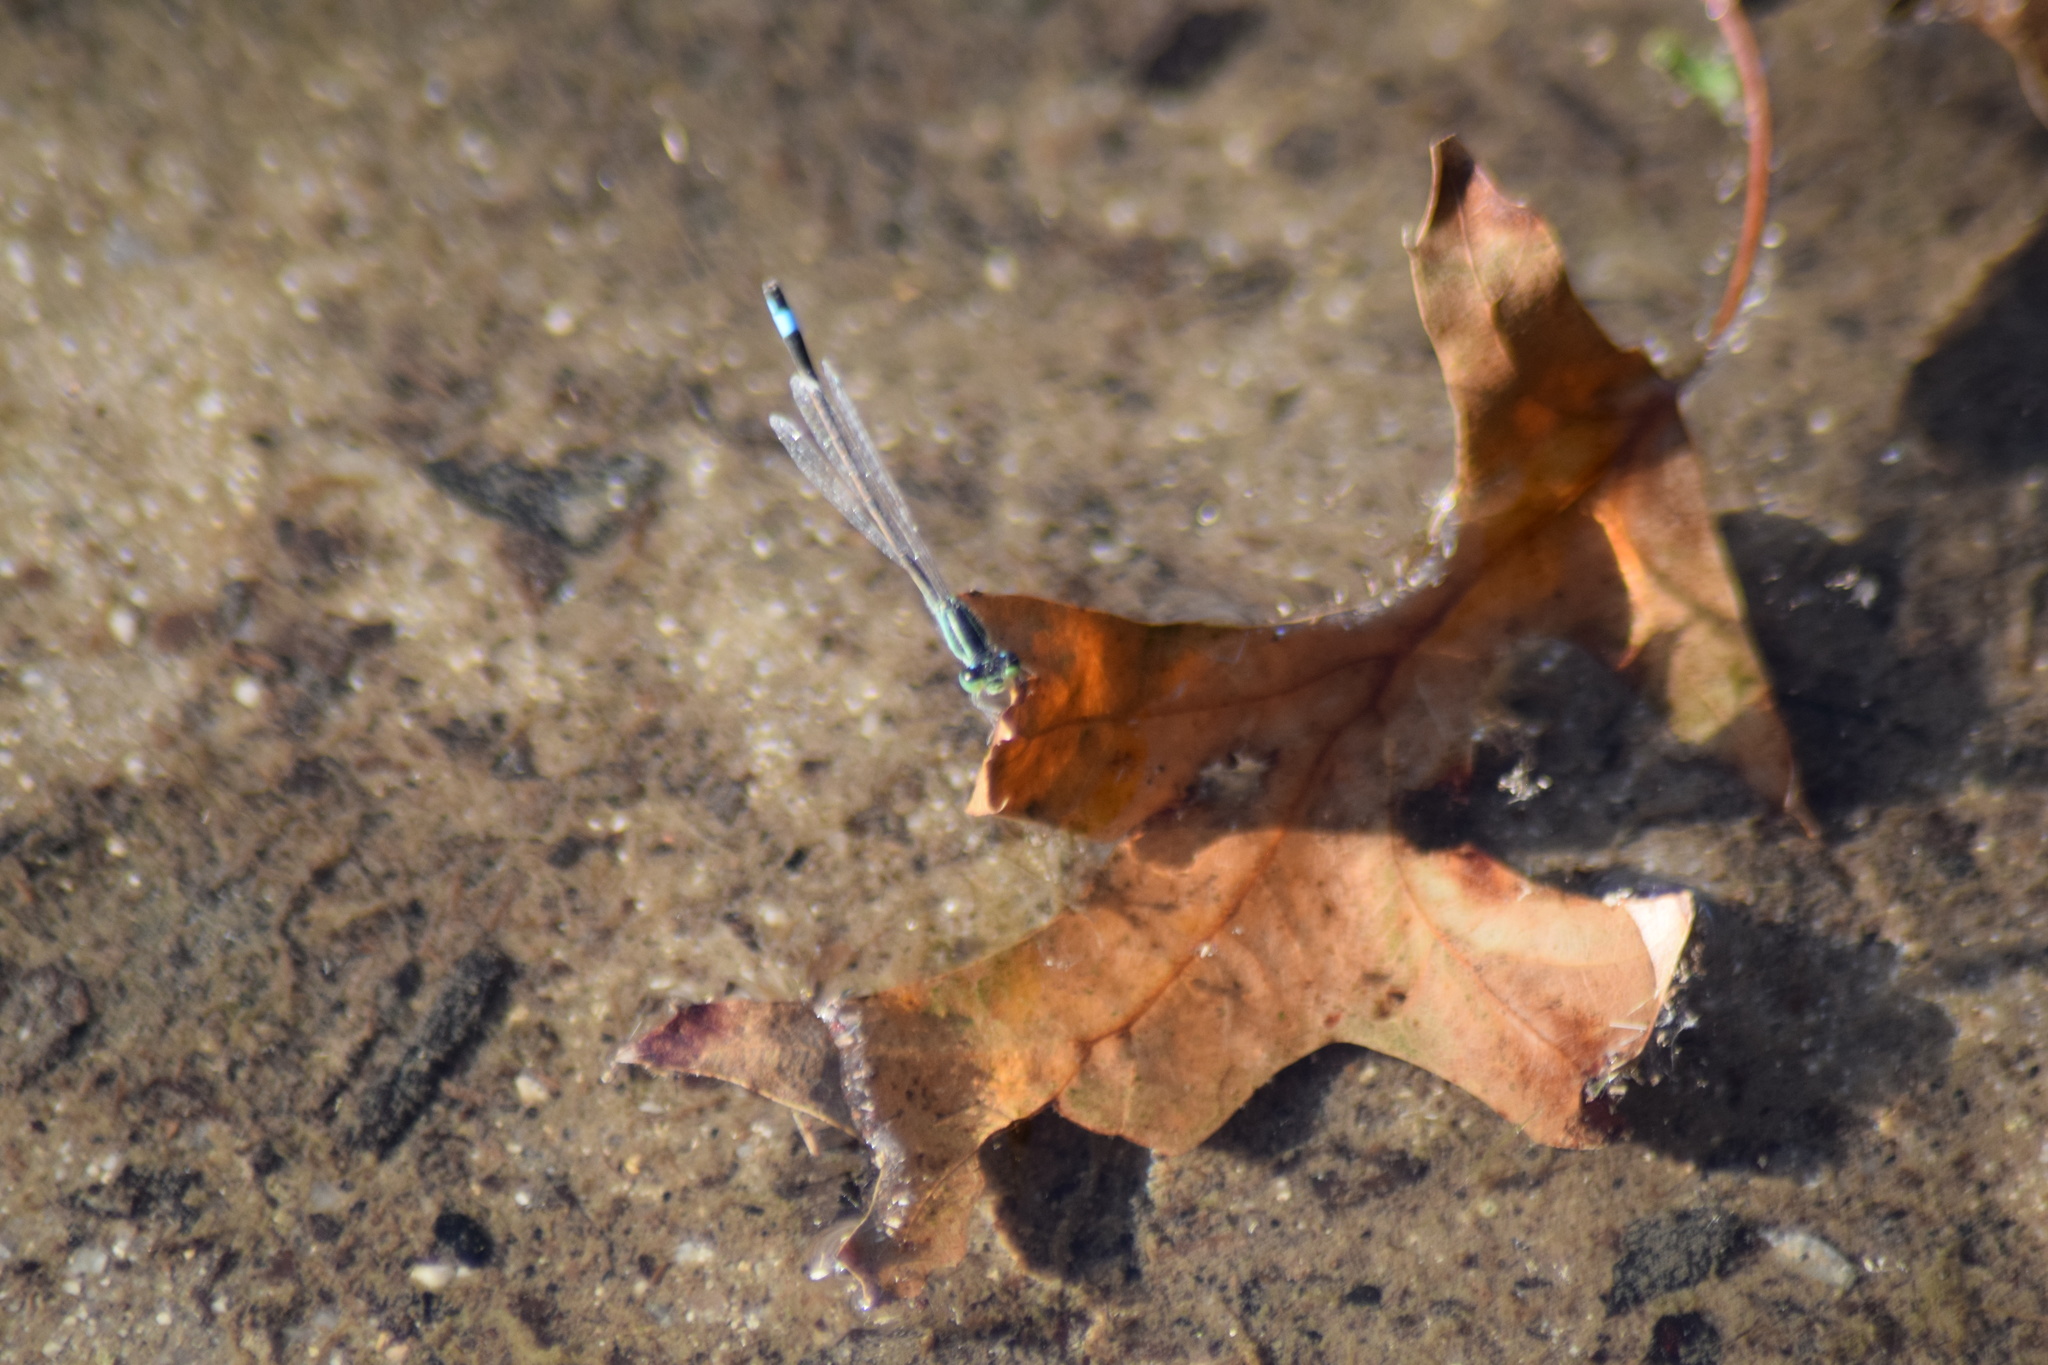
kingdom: Animalia
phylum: Arthropoda
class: Insecta
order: Odonata
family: Coenagrionidae
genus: Ischnura
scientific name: Ischnura ramburii
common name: Rambur's forktail
